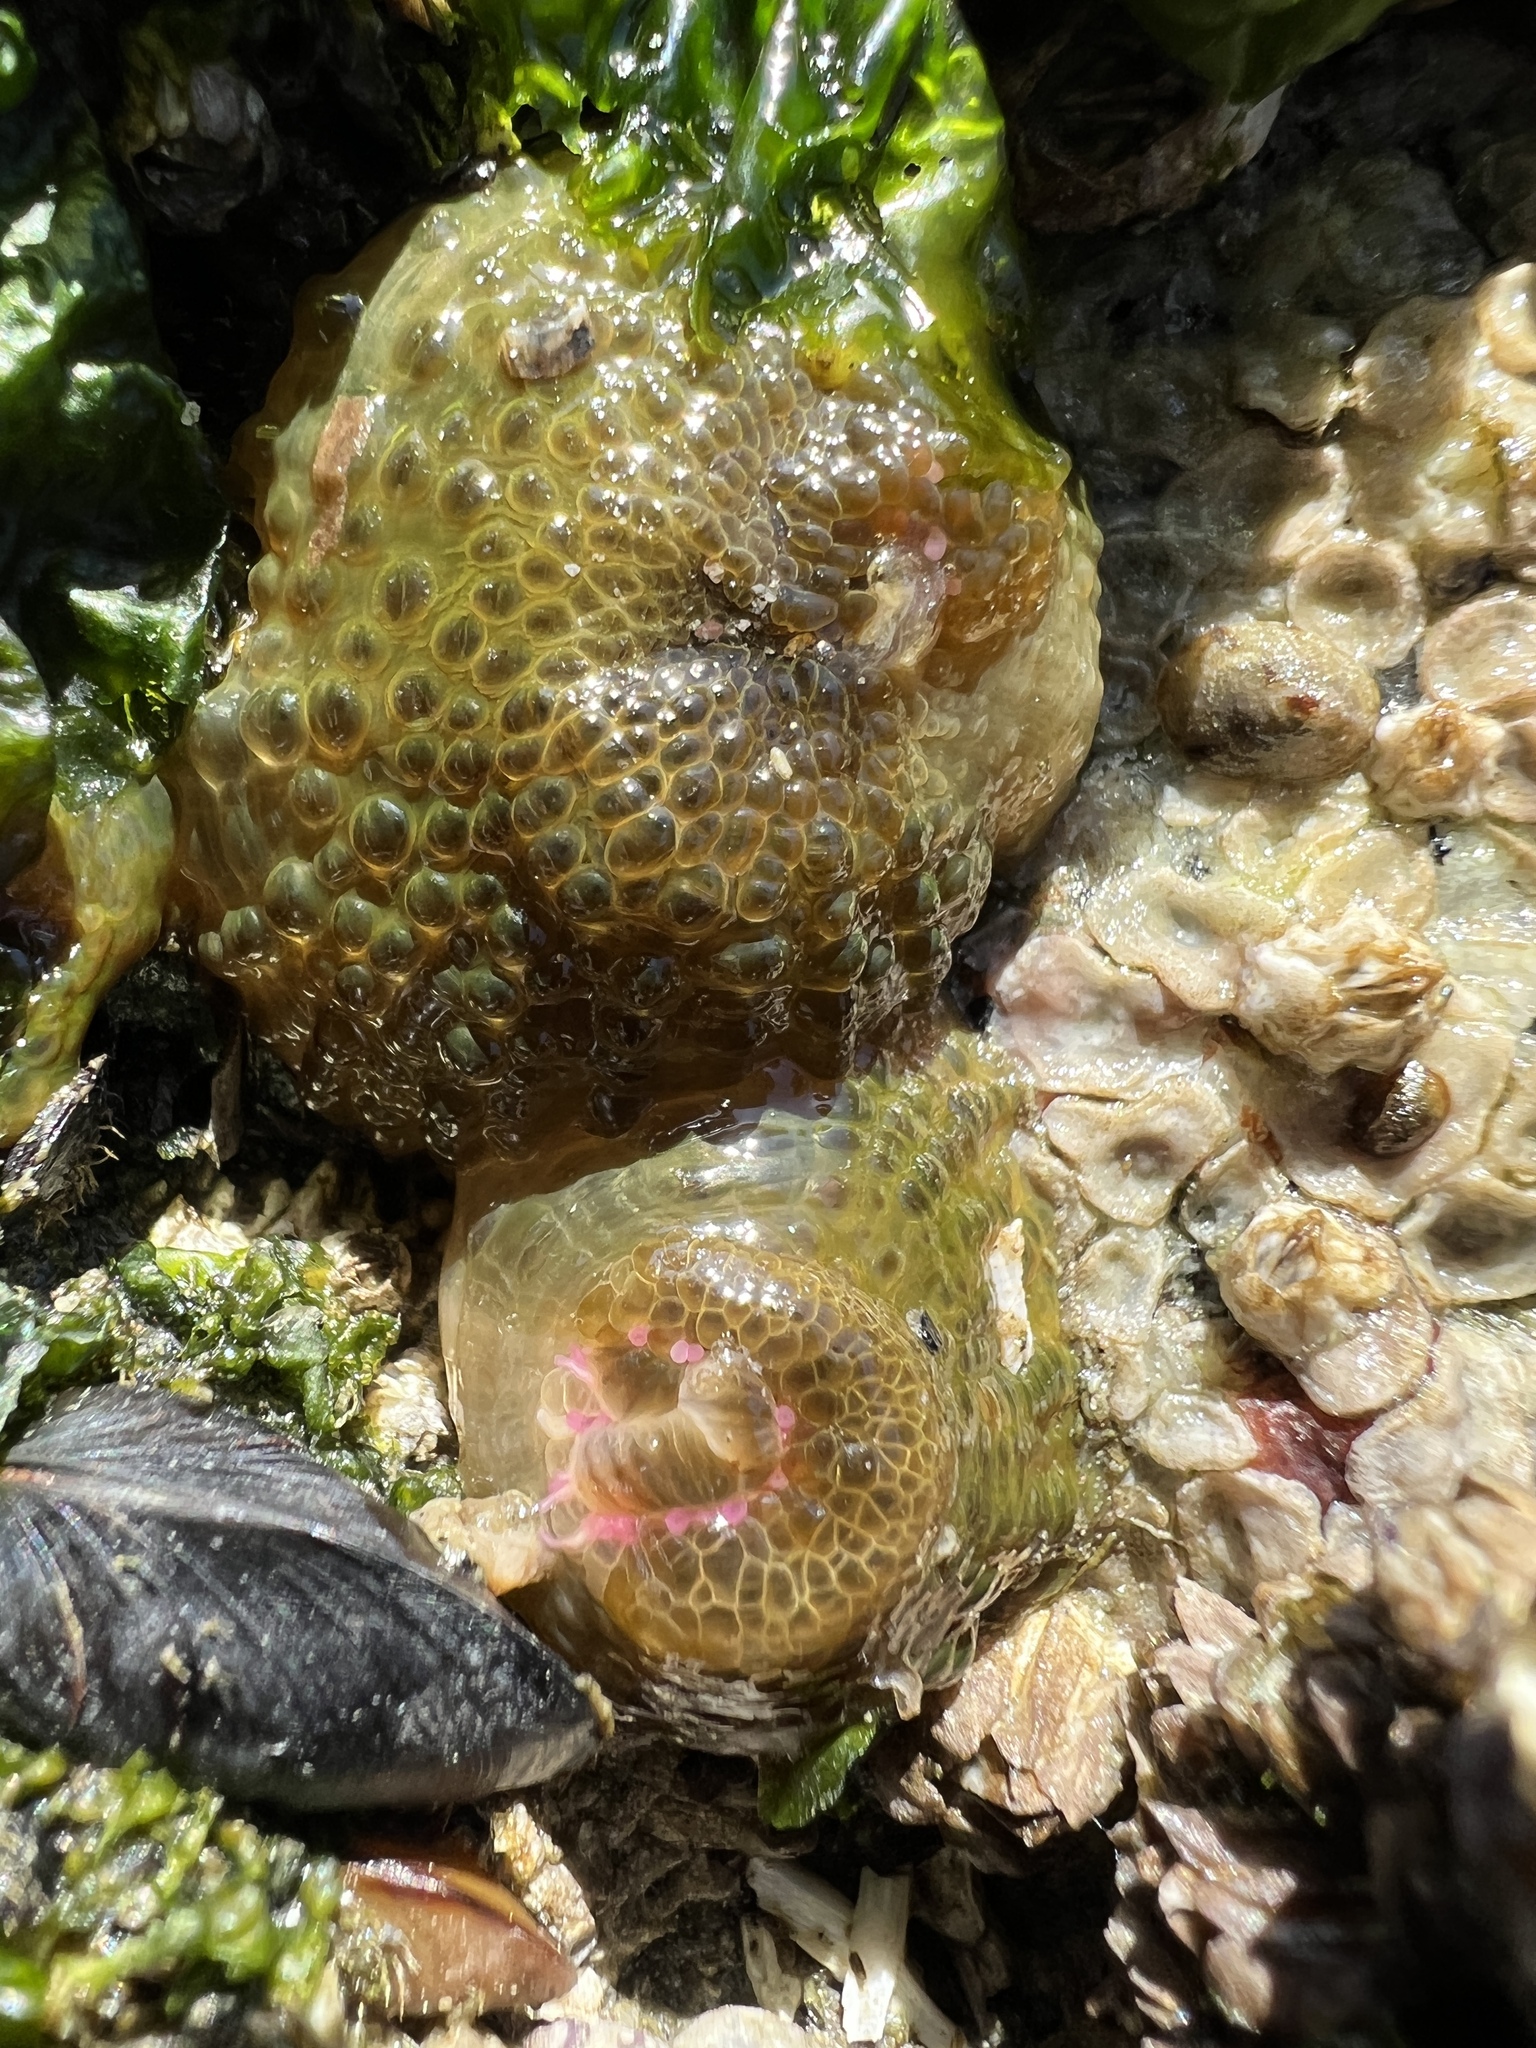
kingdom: Animalia
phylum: Cnidaria
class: Anthozoa
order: Actiniaria
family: Actiniidae
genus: Anthopleura
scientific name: Anthopleura elegantissima
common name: Clonal anemone
